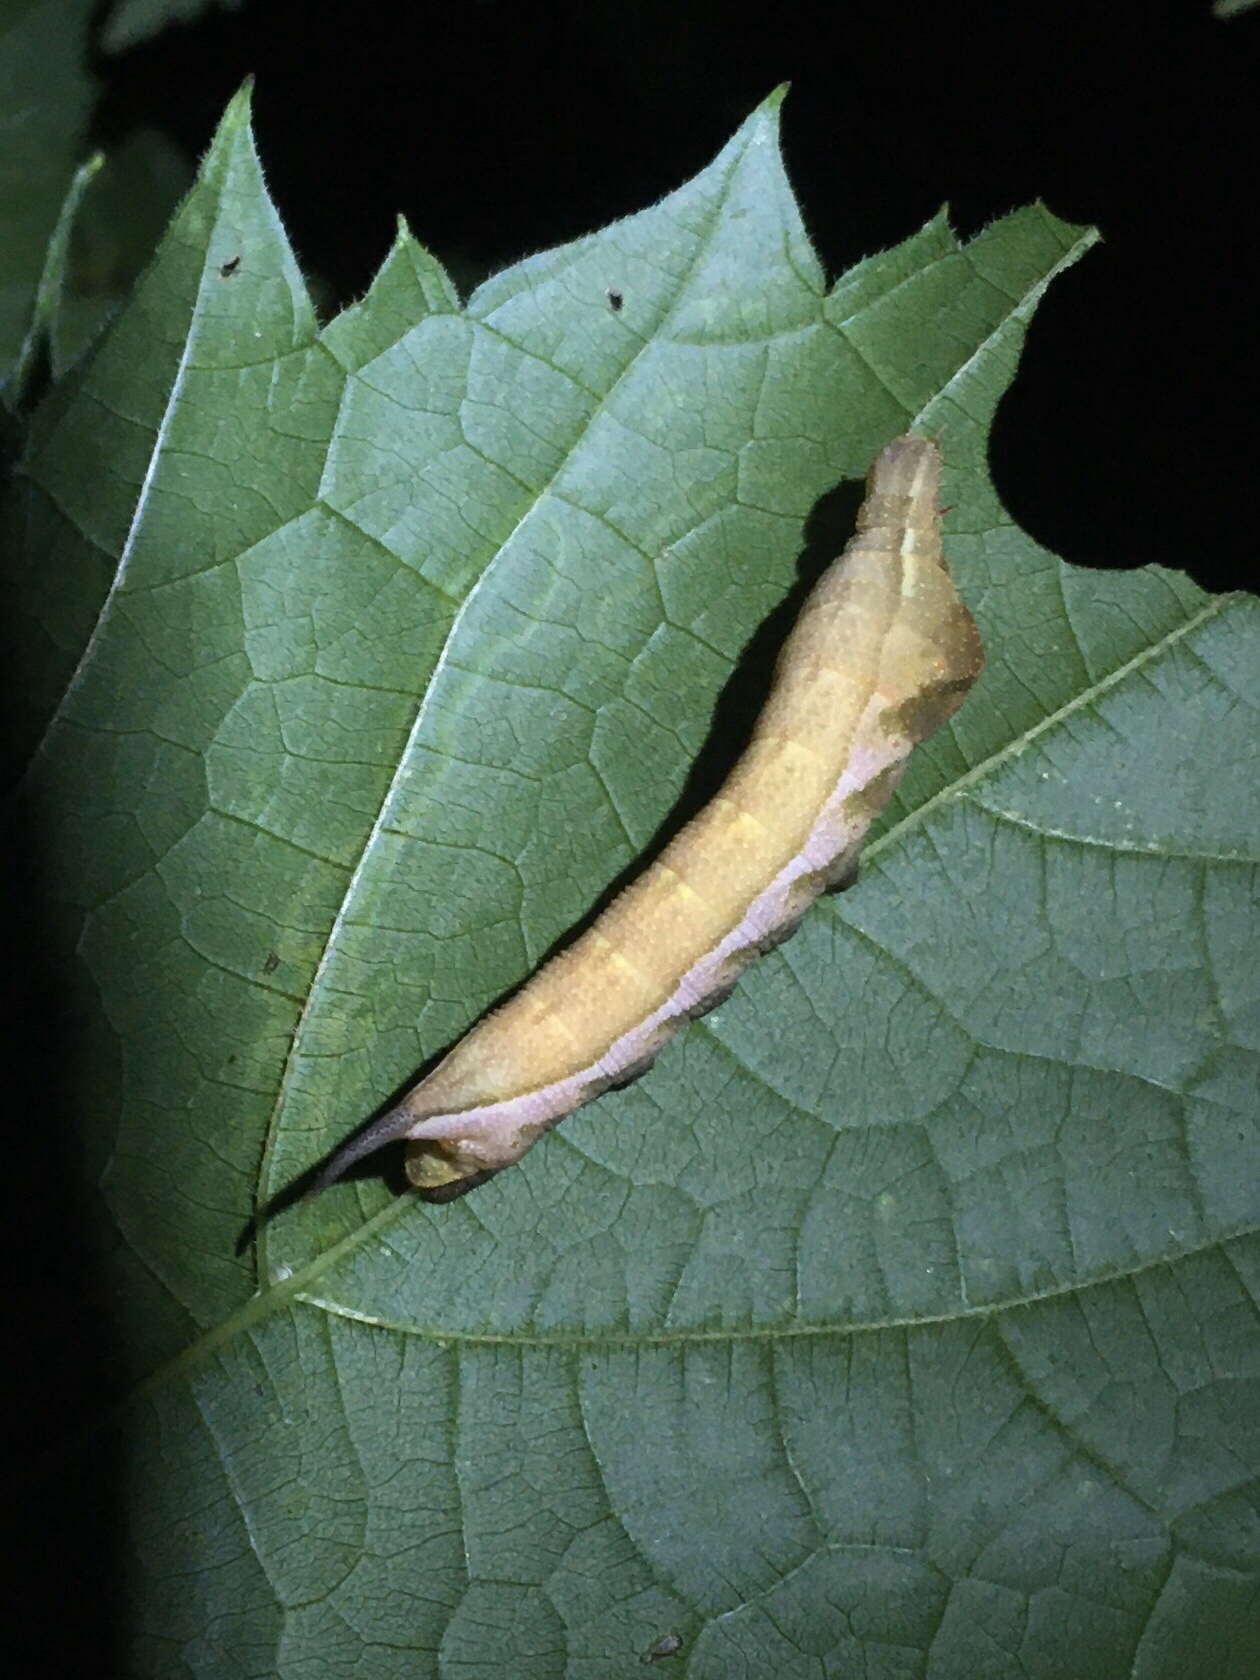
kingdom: Animalia
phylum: Arthropoda
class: Insecta
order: Lepidoptera
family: Sphingidae
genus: Darapsa
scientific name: Darapsa myron
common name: Hog sphinx
